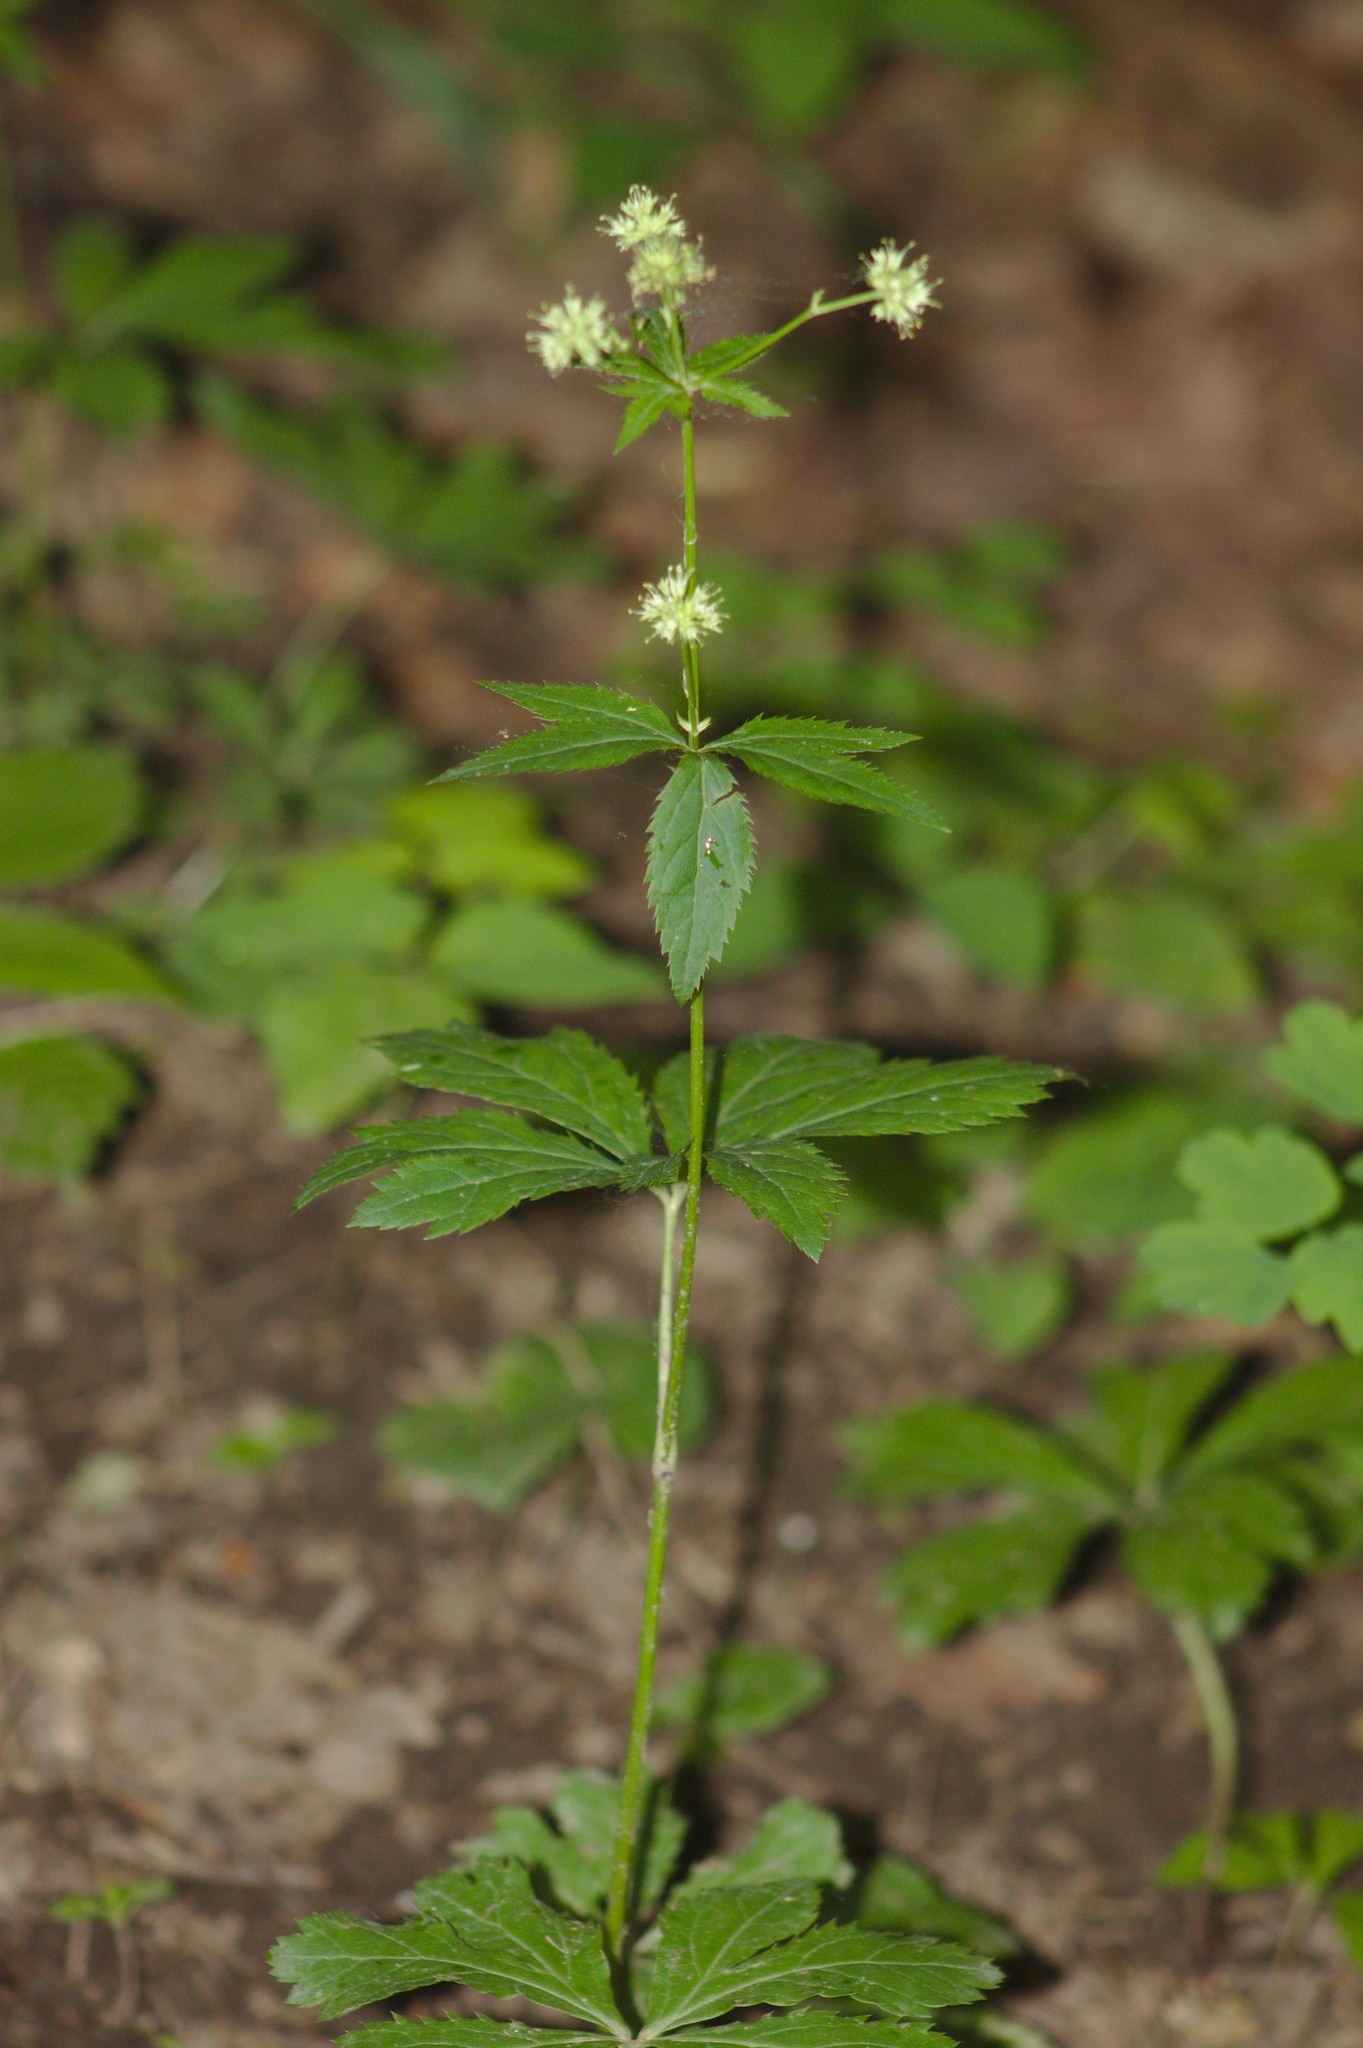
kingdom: Plantae
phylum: Tracheophyta
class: Magnoliopsida
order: Apiales
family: Apiaceae
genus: Sanicula
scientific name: Sanicula marilandica
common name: Black snakeroot
